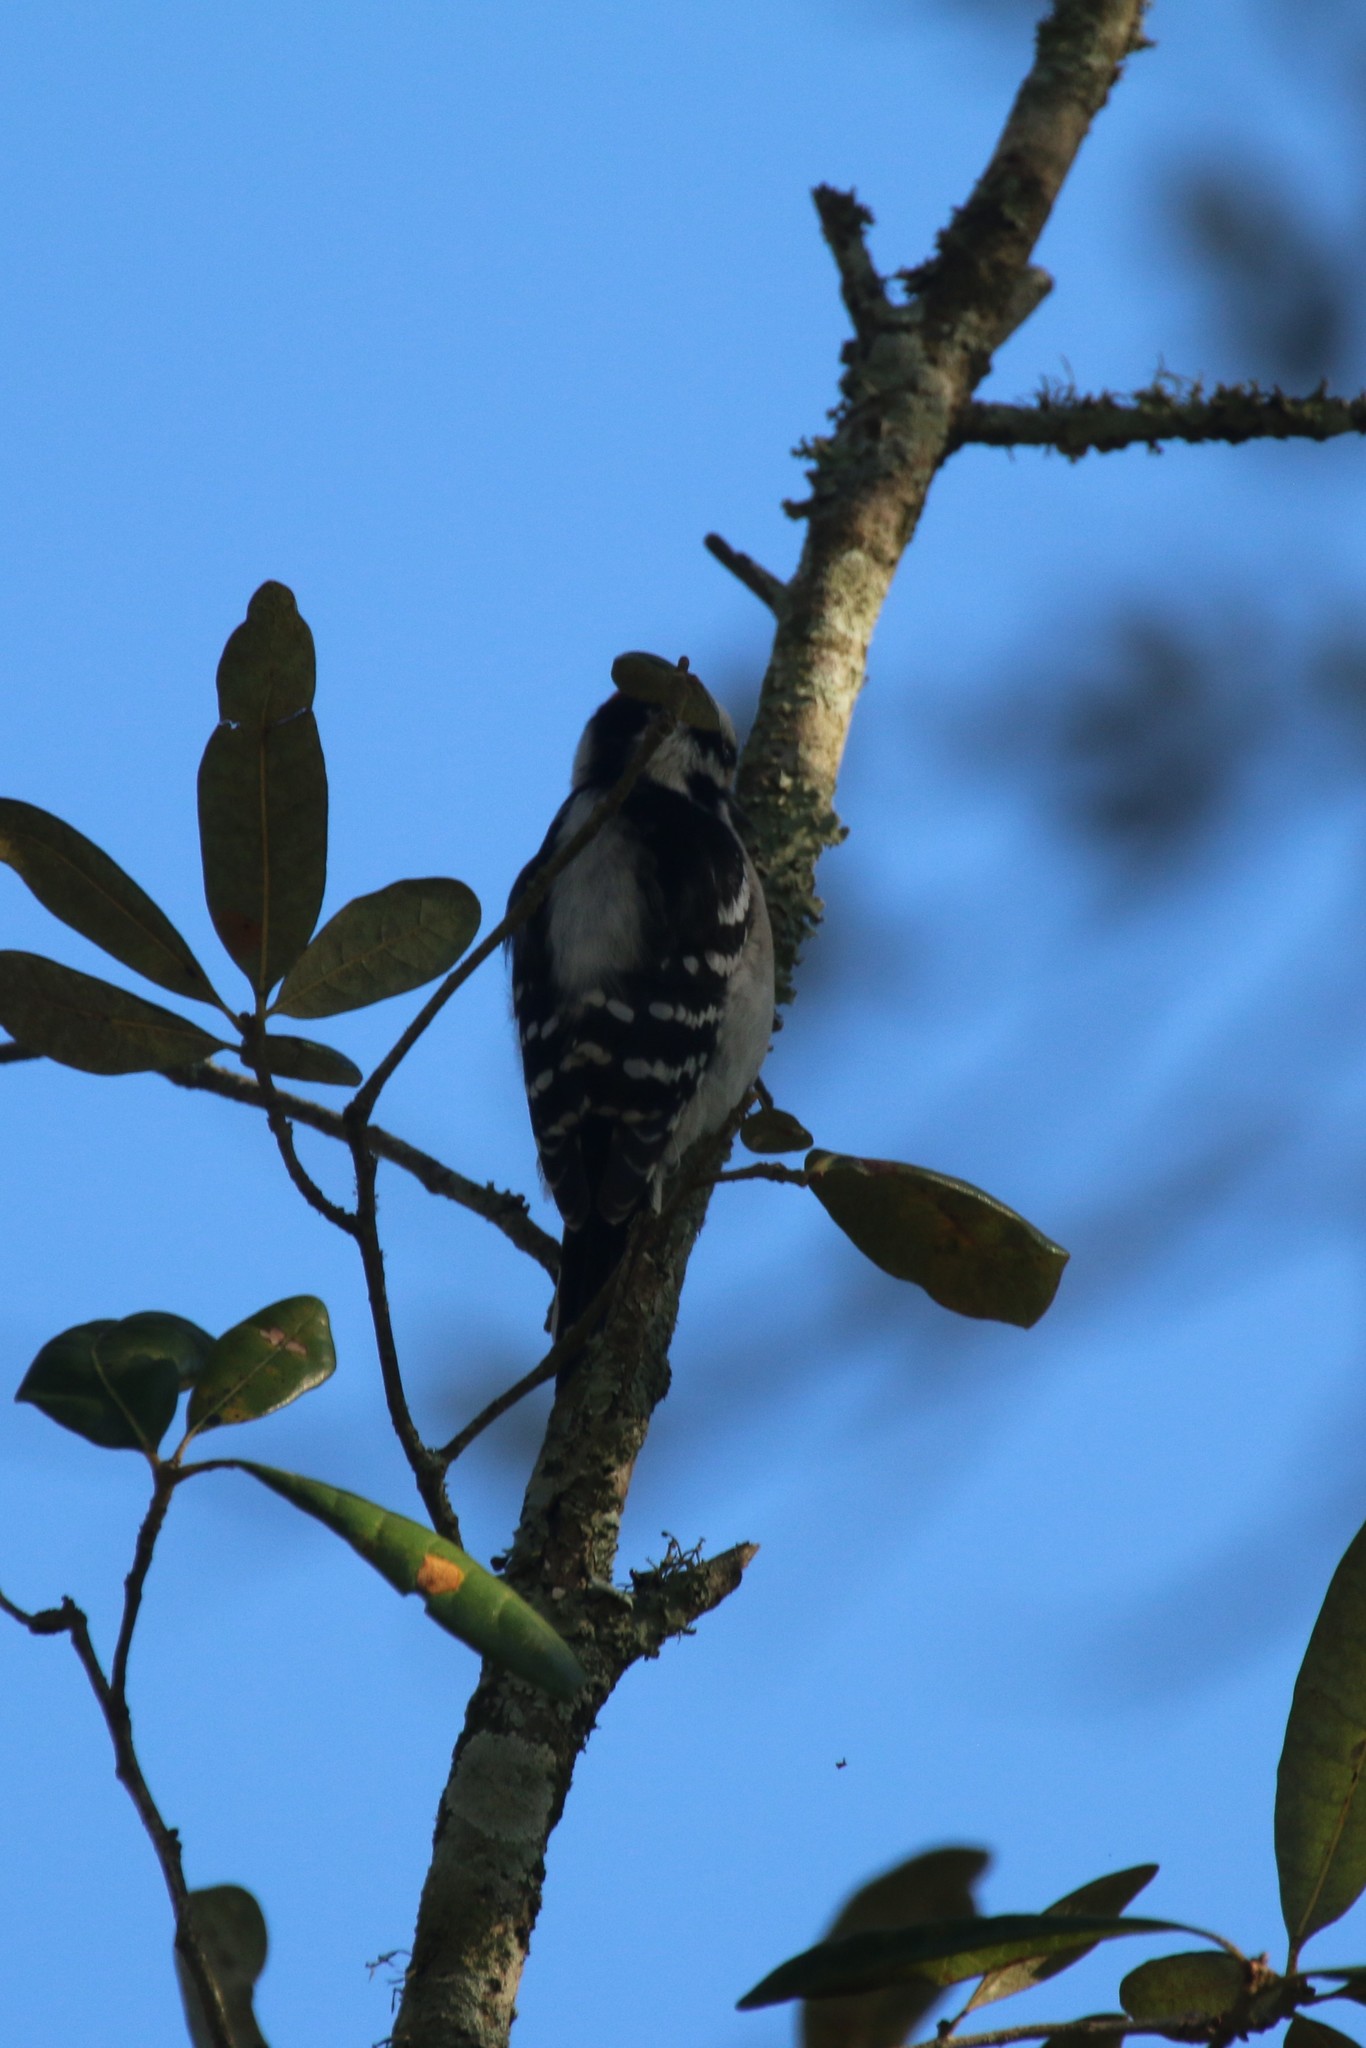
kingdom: Animalia
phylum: Chordata
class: Aves
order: Piciformes
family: Picidae
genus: Dryobates
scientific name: Dryobates pubescens
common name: Downy woodpecker
